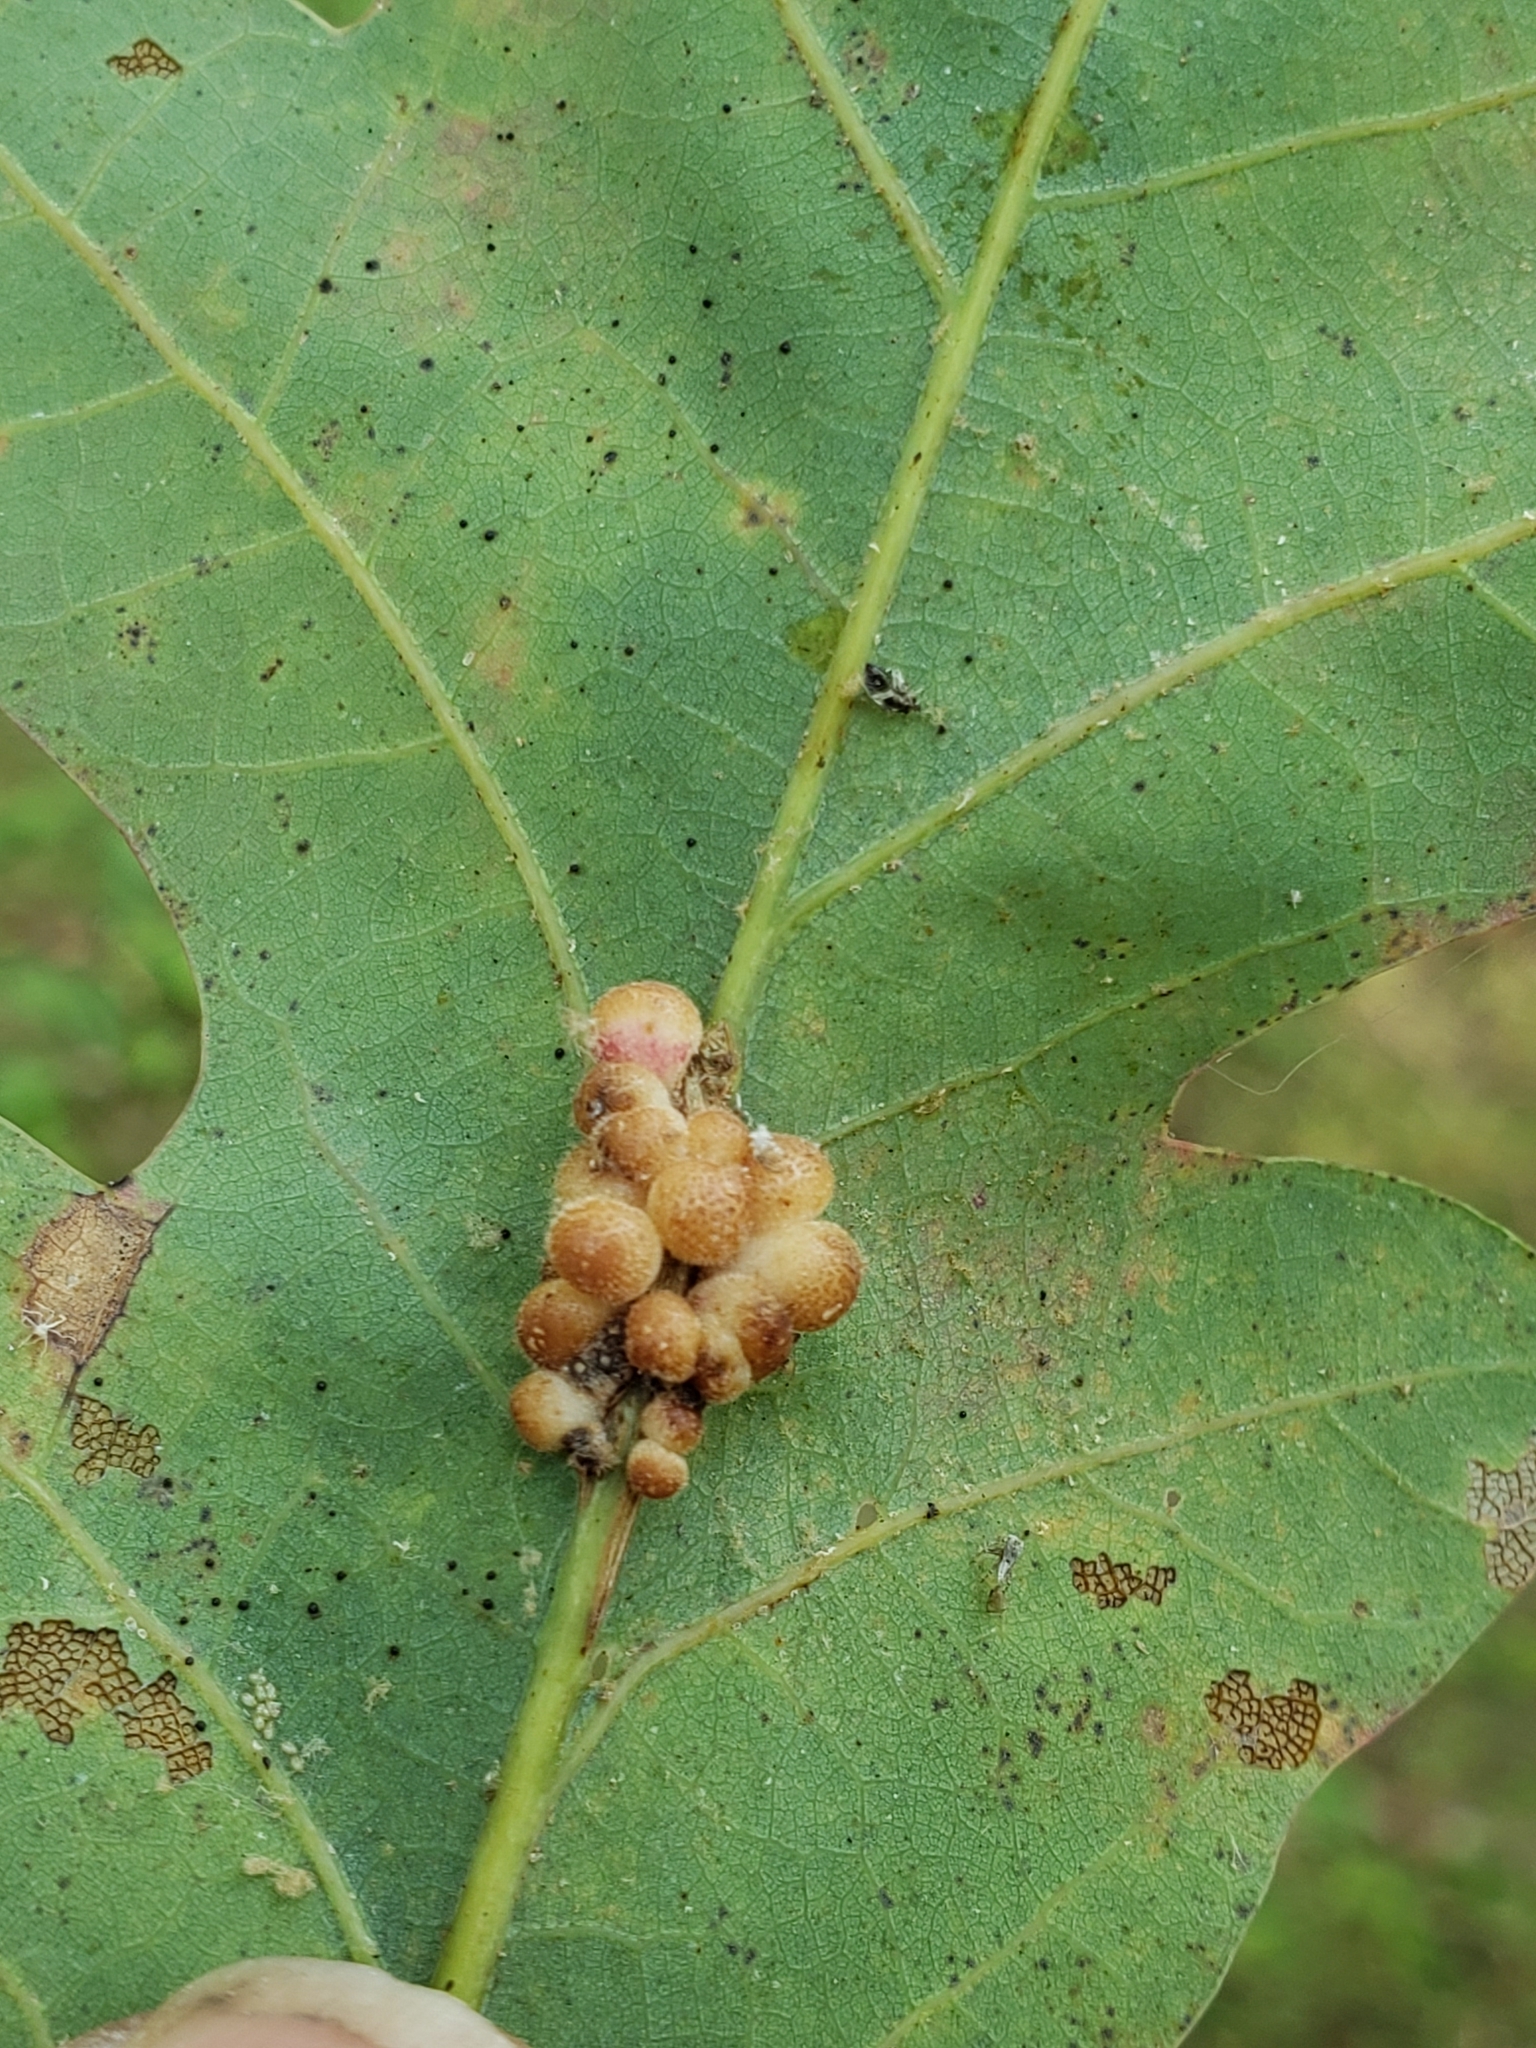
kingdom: Animalia
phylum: Arthropoda
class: Insecta
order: Hymenoptera
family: Cynipidae
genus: Andricus
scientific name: Andricus
